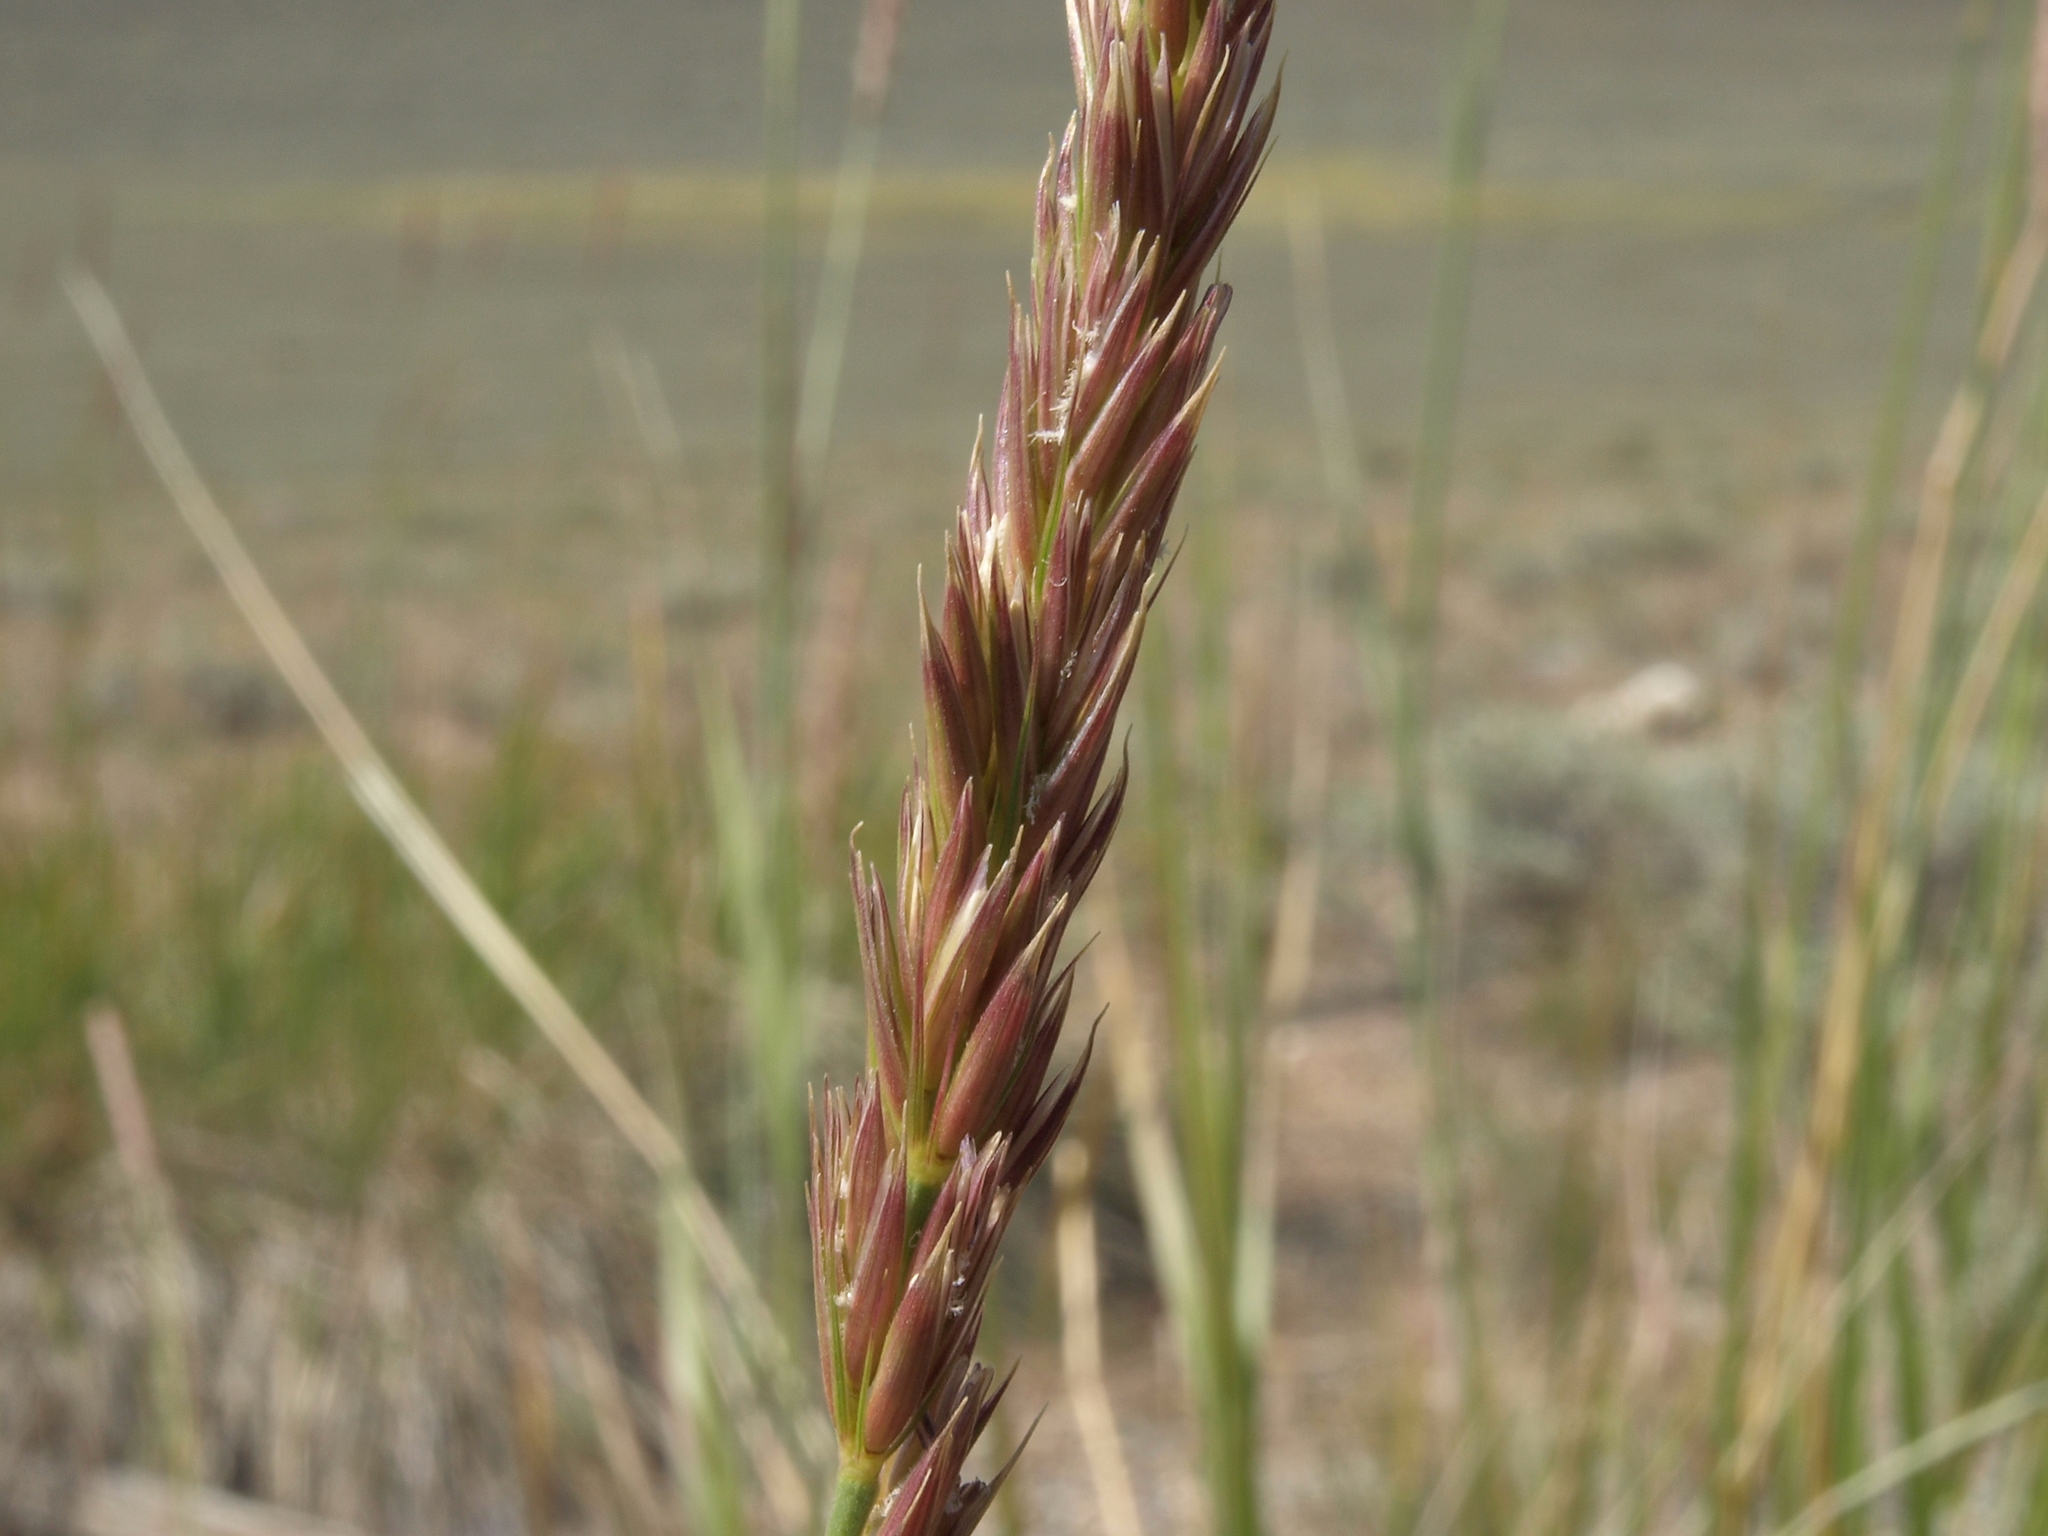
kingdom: Plantae
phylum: Tracheophyta
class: Liliopsida
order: Poales
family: Poaceae
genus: Leymus
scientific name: Leymus cinereus
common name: Basin wild rye
